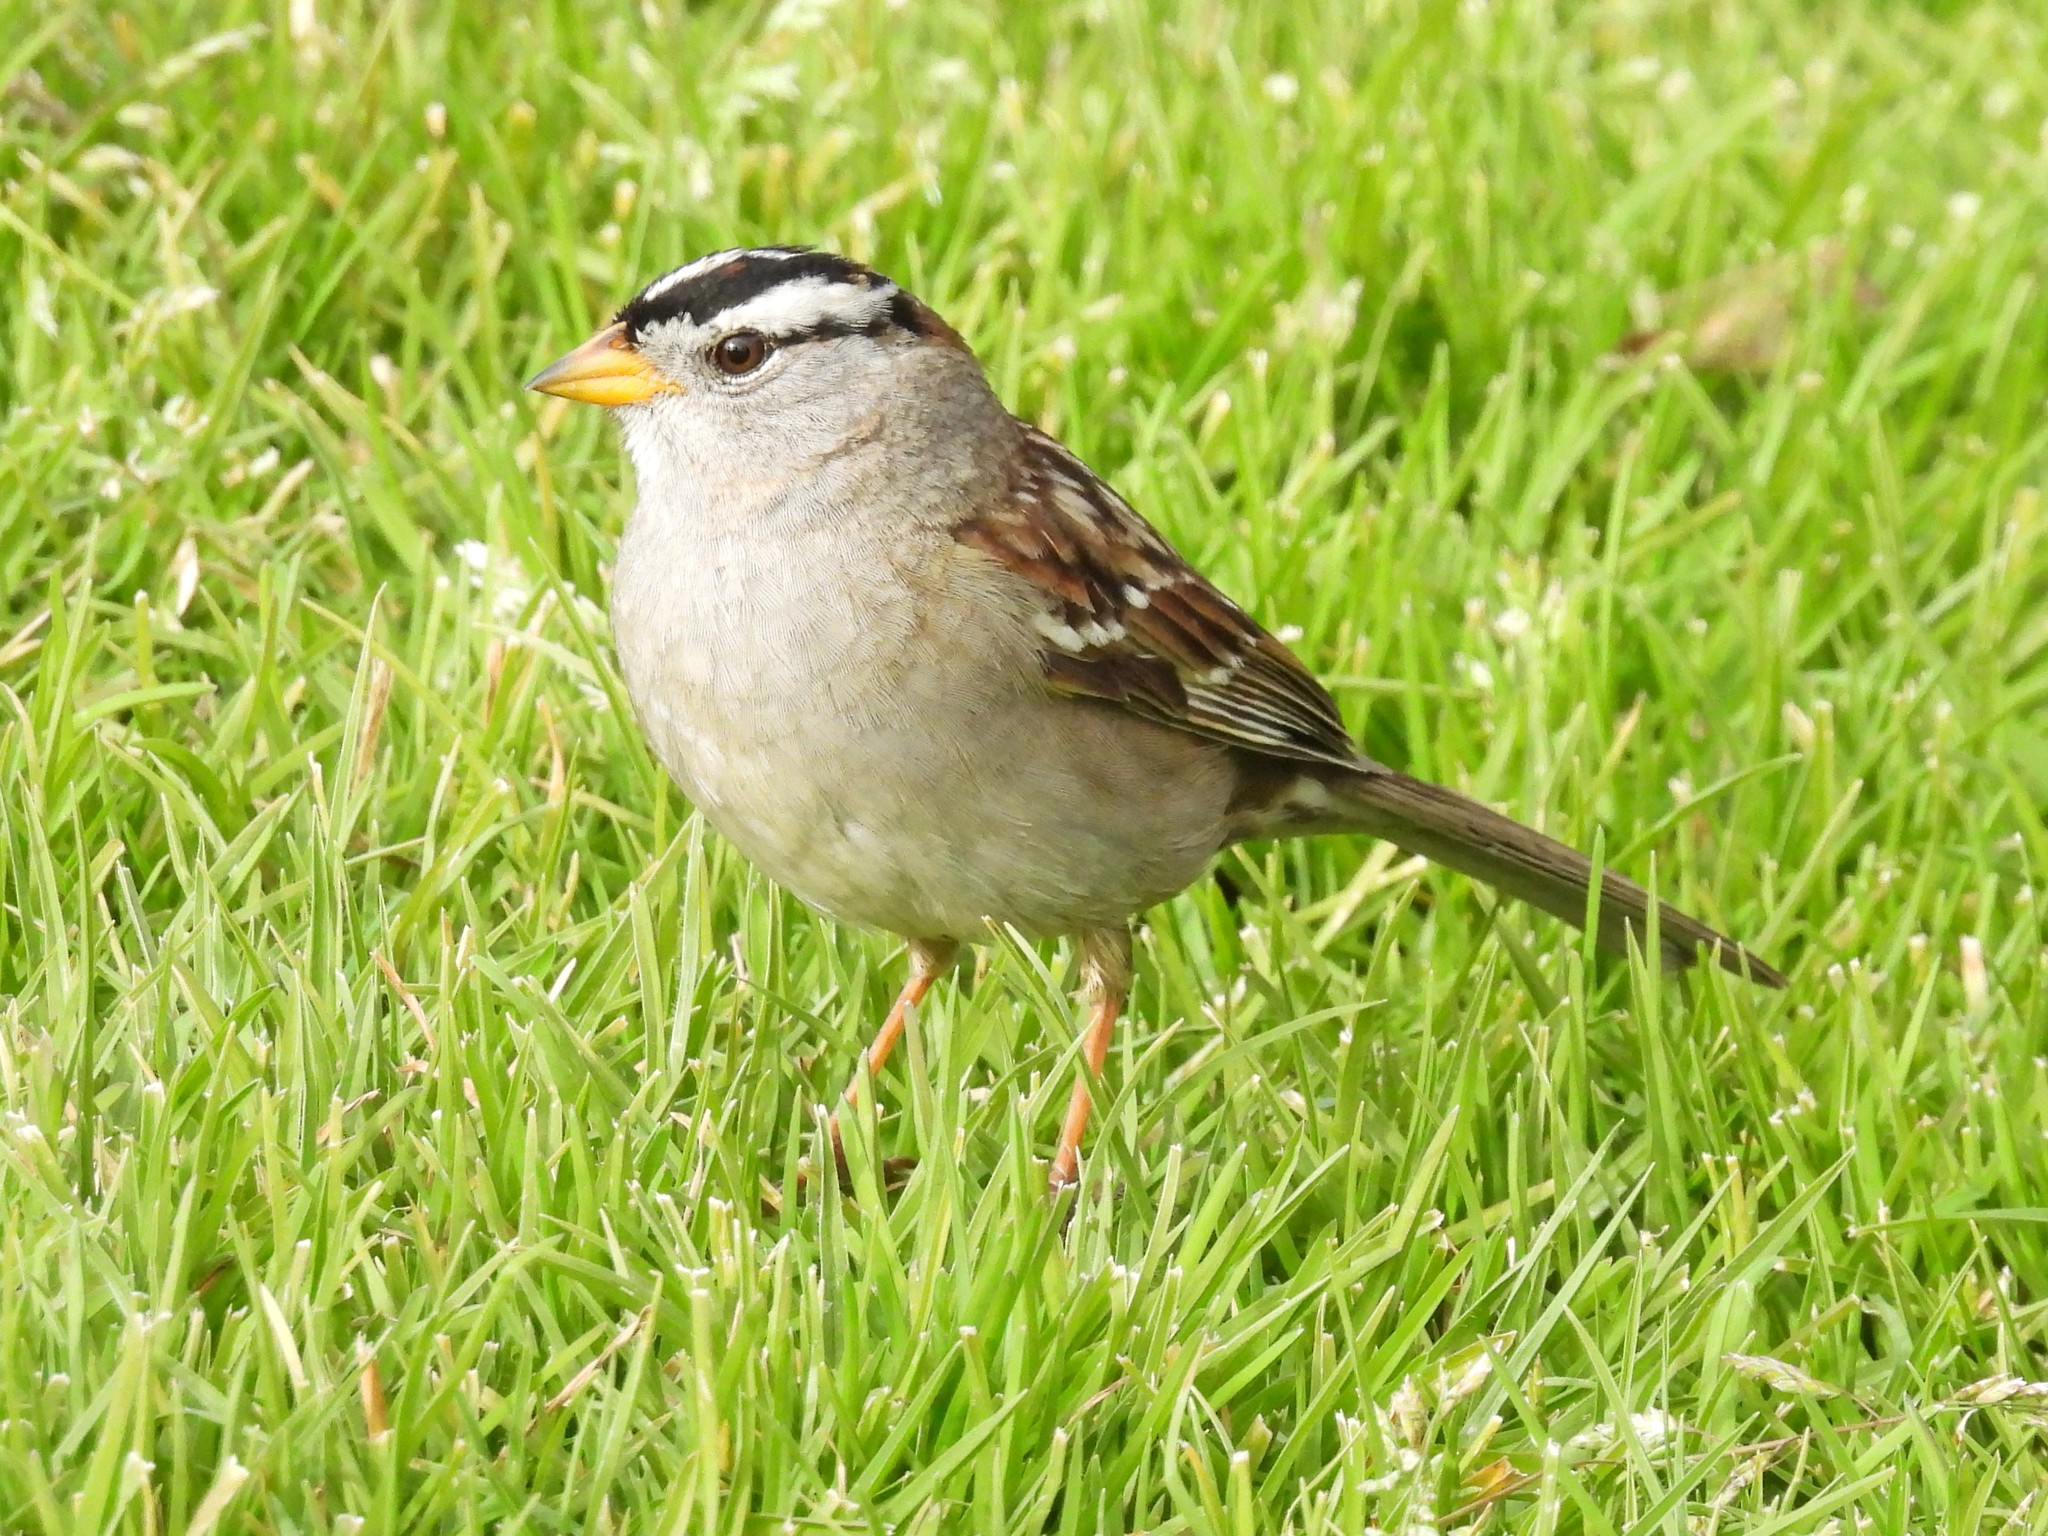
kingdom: Animalia
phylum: Chordata
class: Aves
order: Passeriformes
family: Passerellidae
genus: Zonotrichia
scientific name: Zonotrichia leucophrys
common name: White-crowned sparrow
